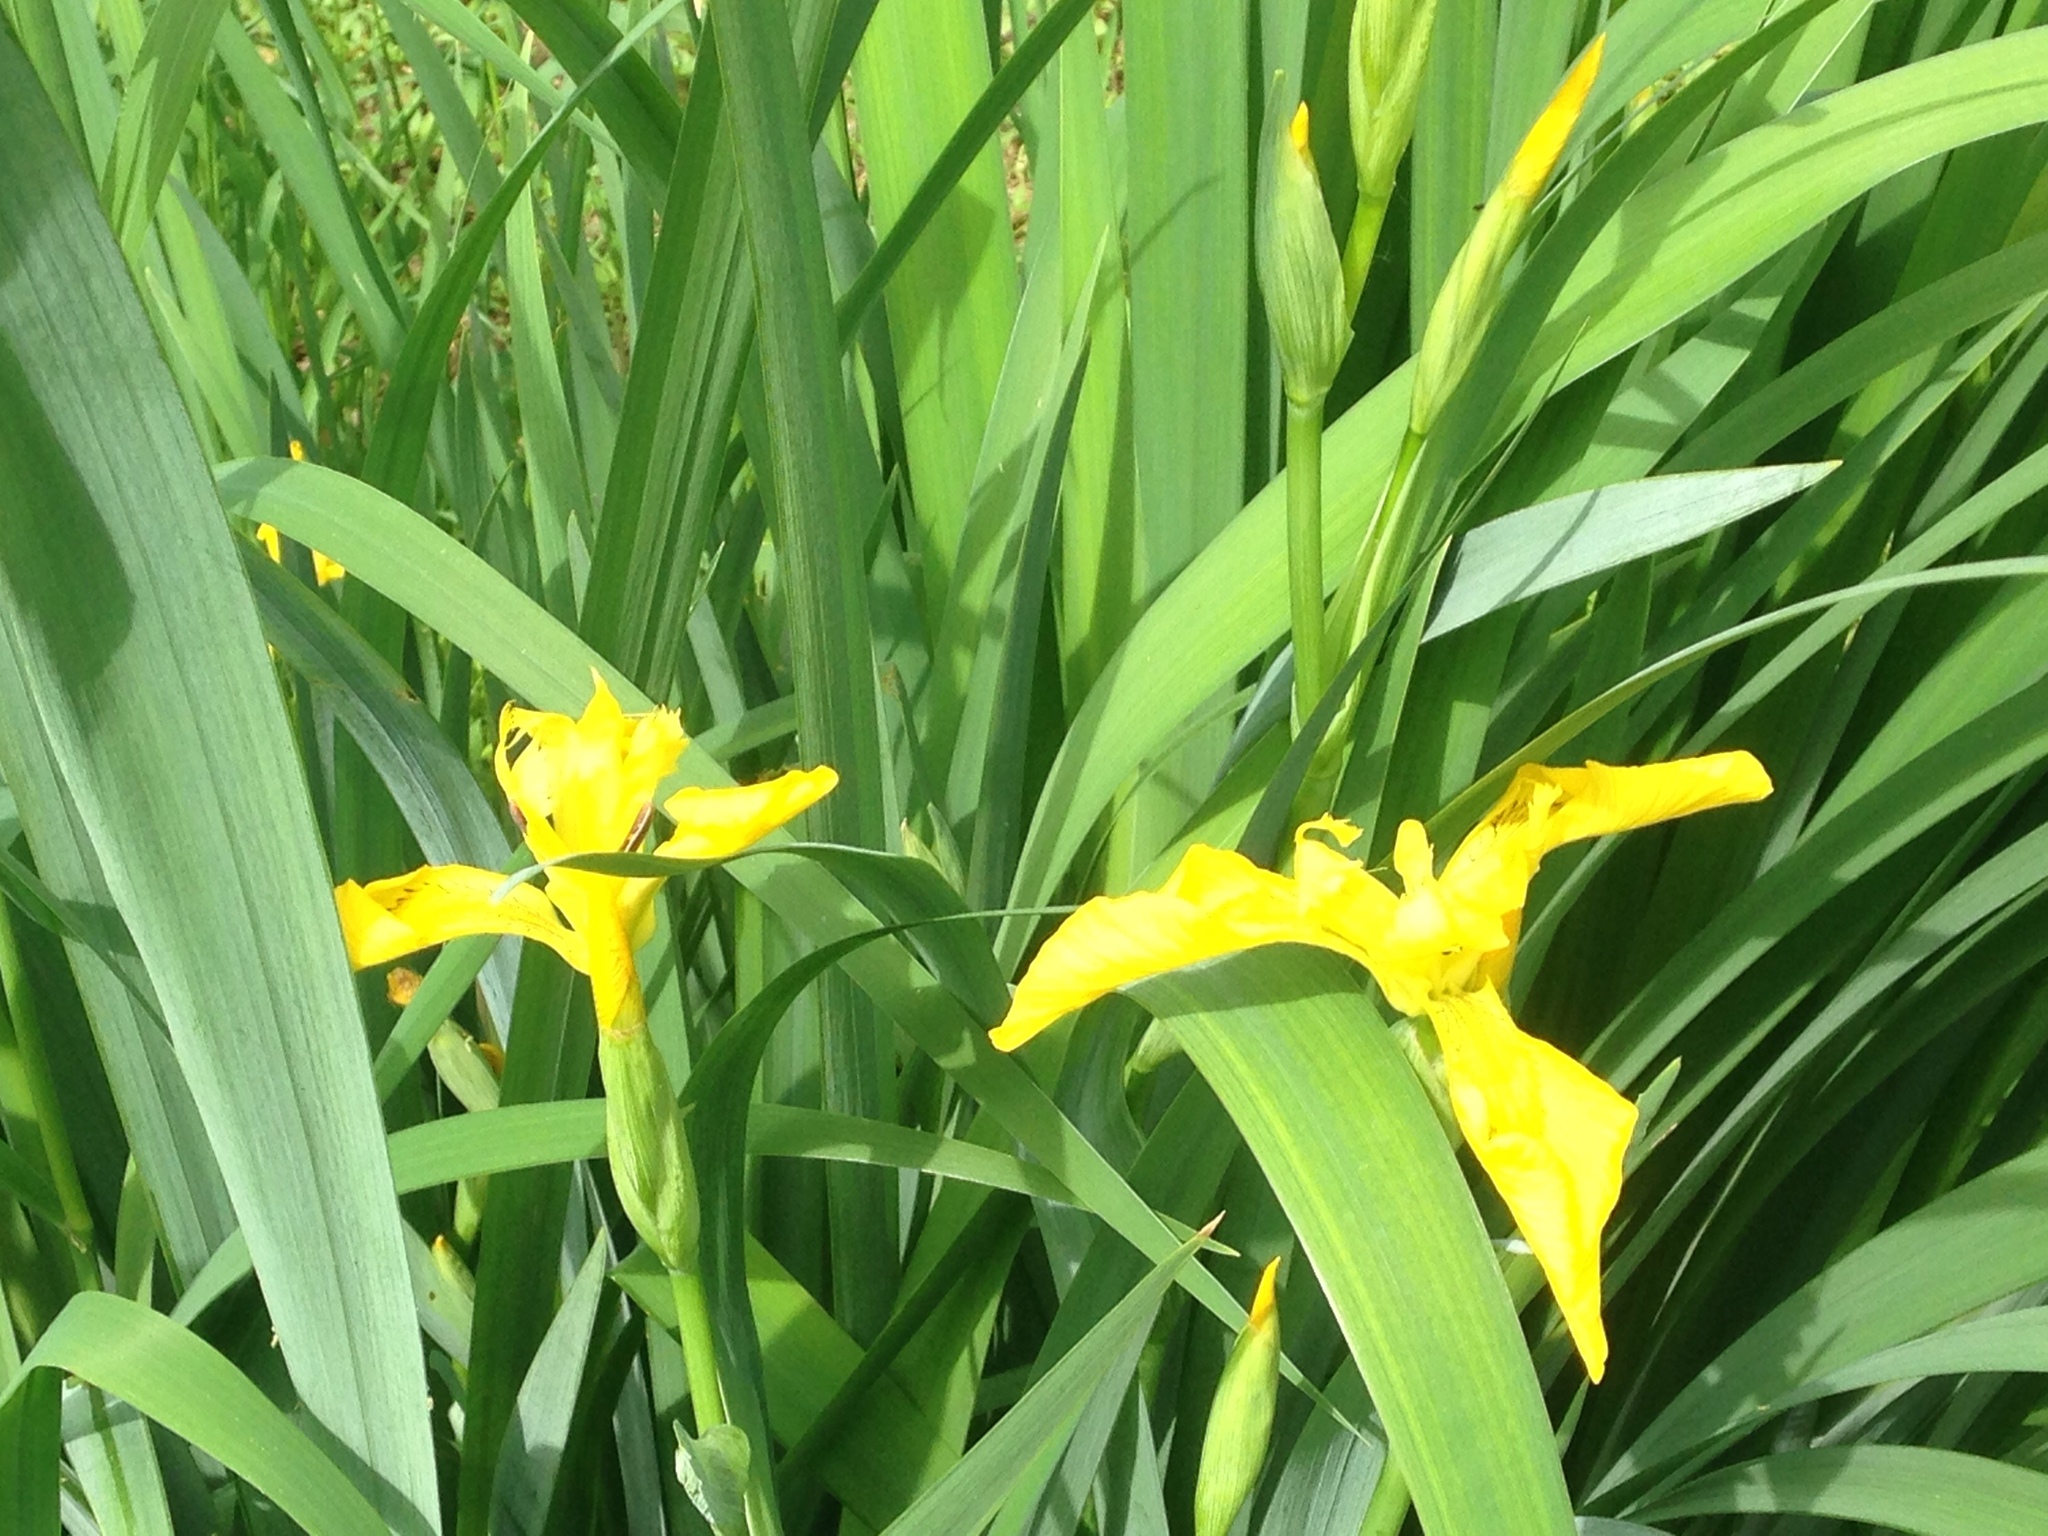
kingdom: Plantae
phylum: Tracheophyta
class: Liliopsida
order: Asparagales
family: Iridaceae
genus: Iris
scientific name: Iris pseudacorus
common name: Yellow flag
